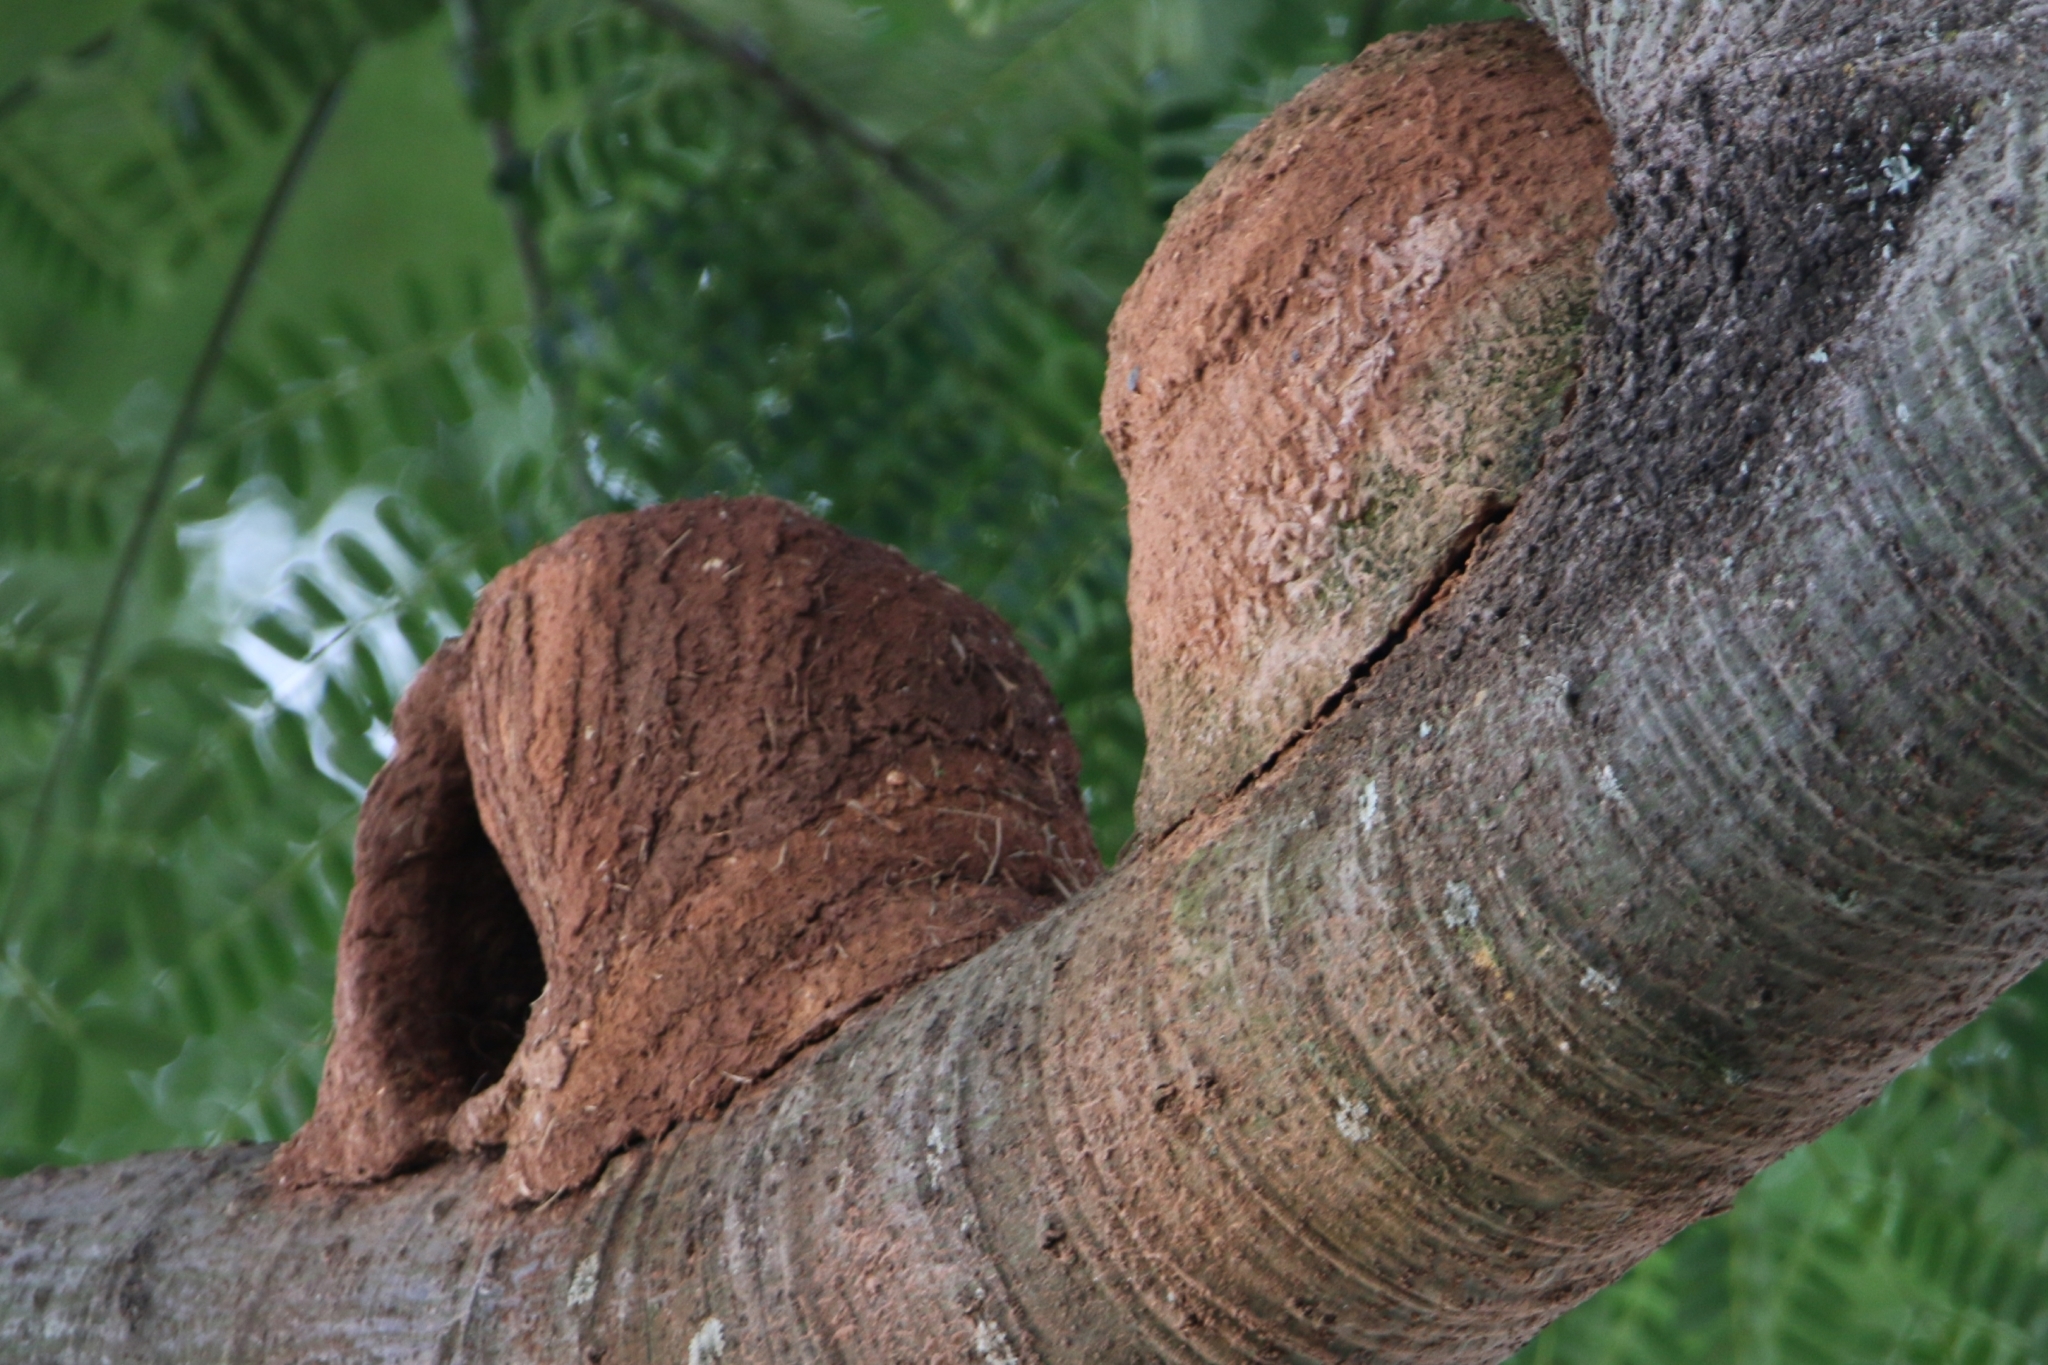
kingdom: Animalia
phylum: Chordata
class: Aves
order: Passeriformes
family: Furnariidae
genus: Furnarius
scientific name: Furnarius rufus
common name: Rufous hornero
